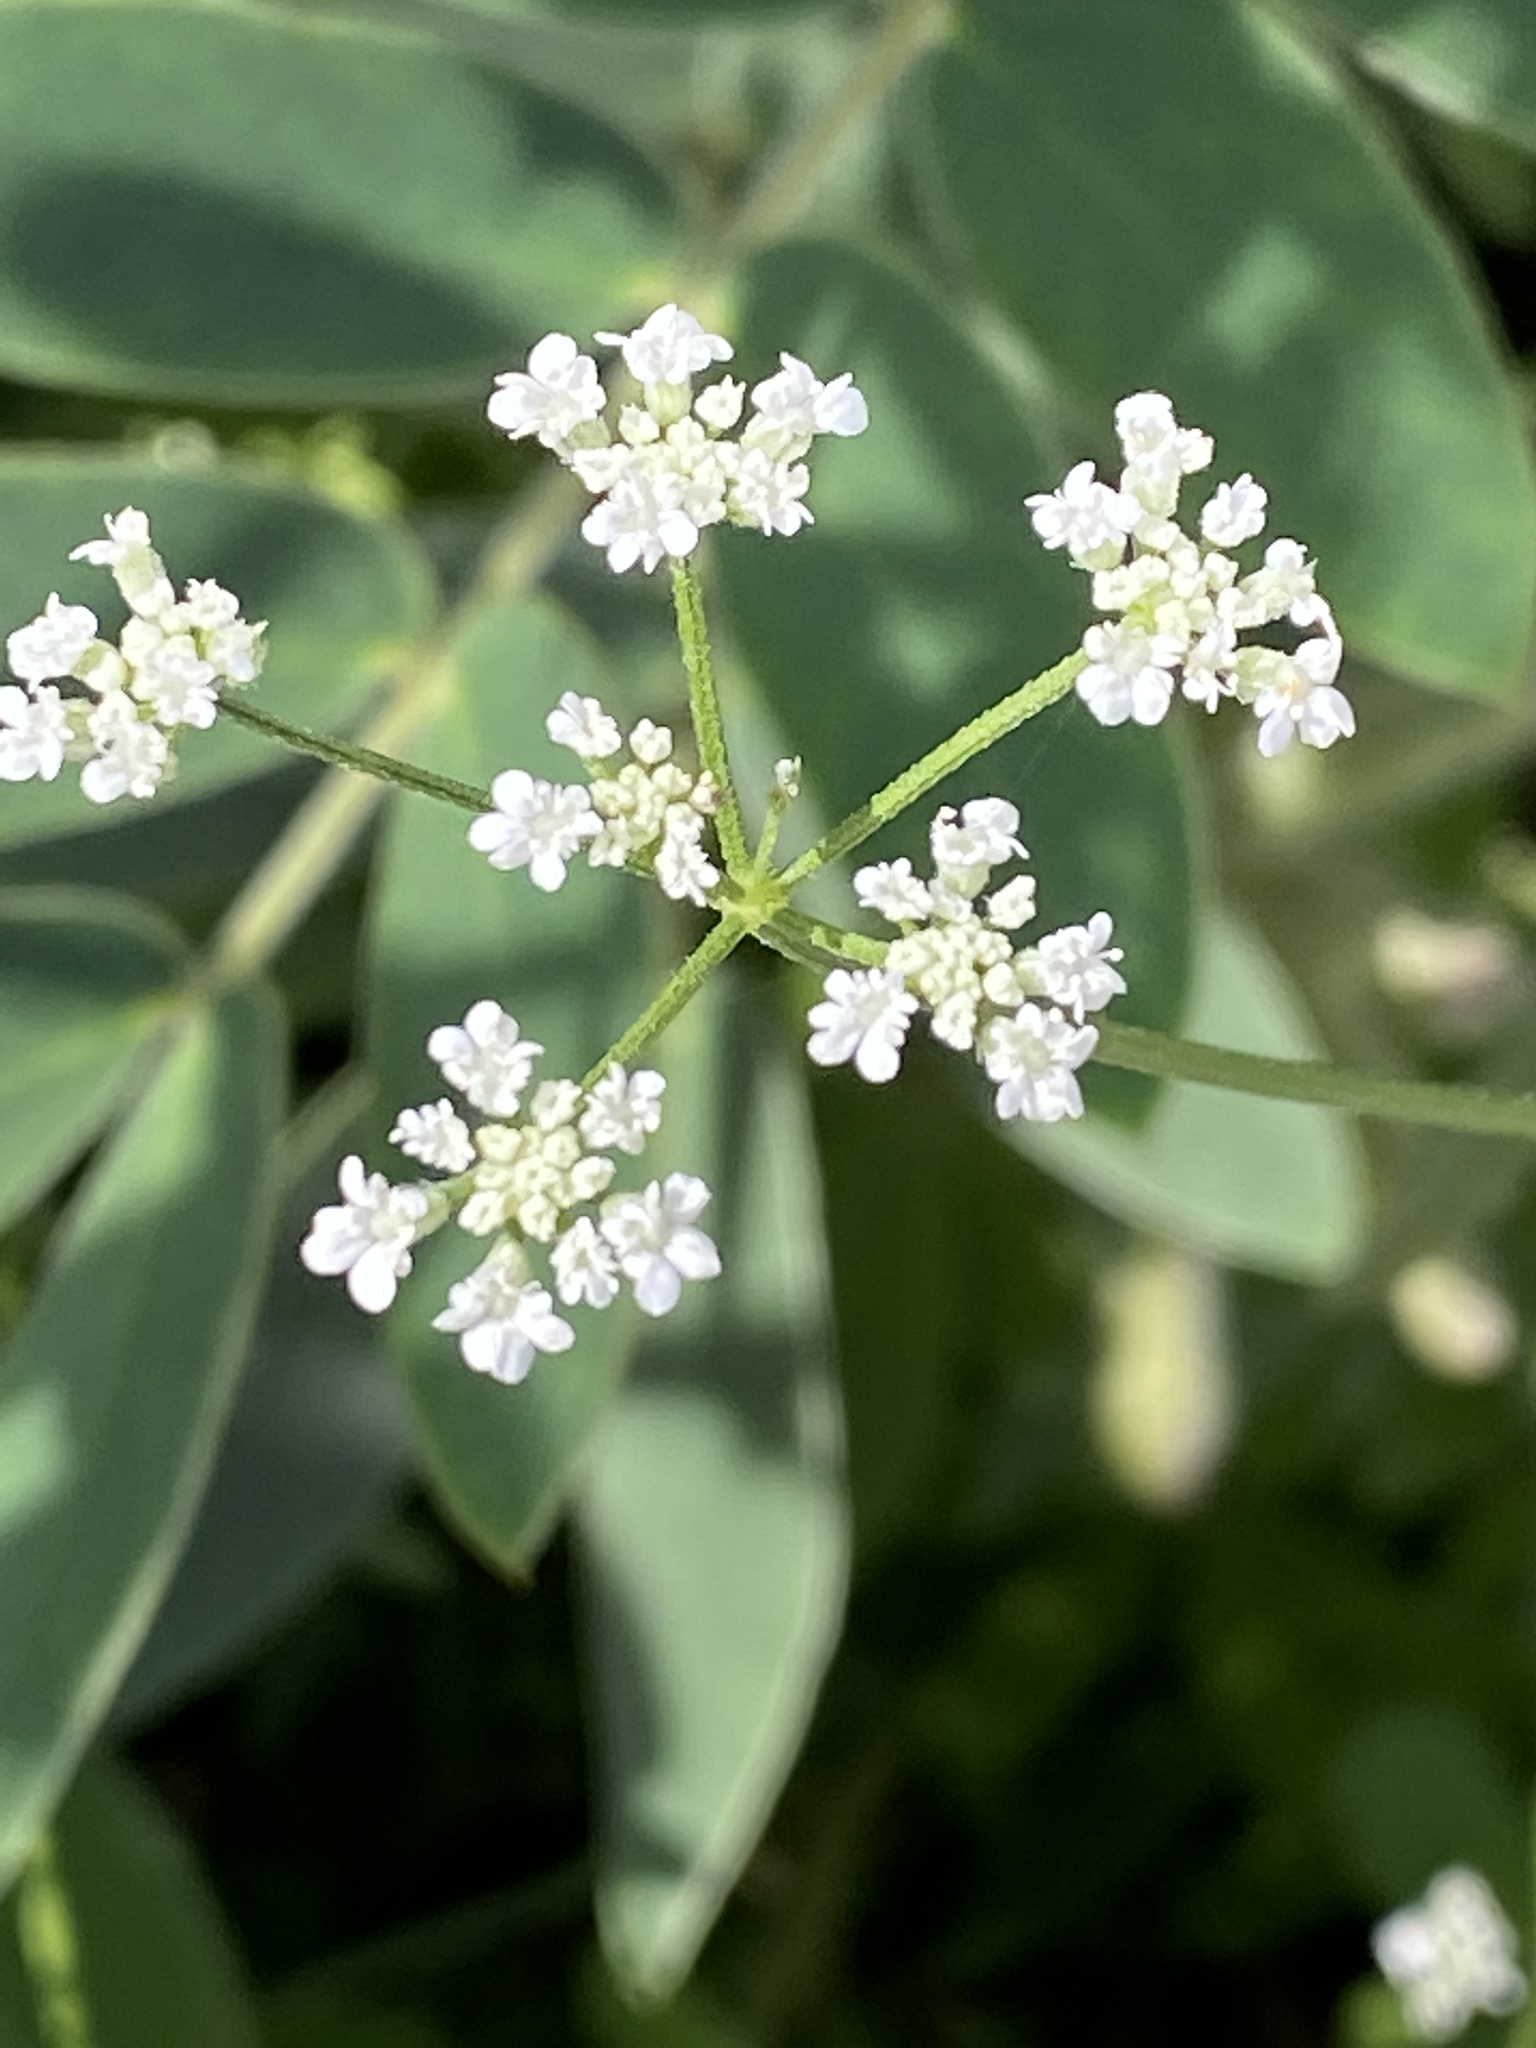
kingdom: Plantae
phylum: Tracheophyta
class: Magnoliopsida
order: Apiales
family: Apiaceae
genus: Torilis
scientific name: Torilis arvensis
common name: Spreading hedge-parsley
